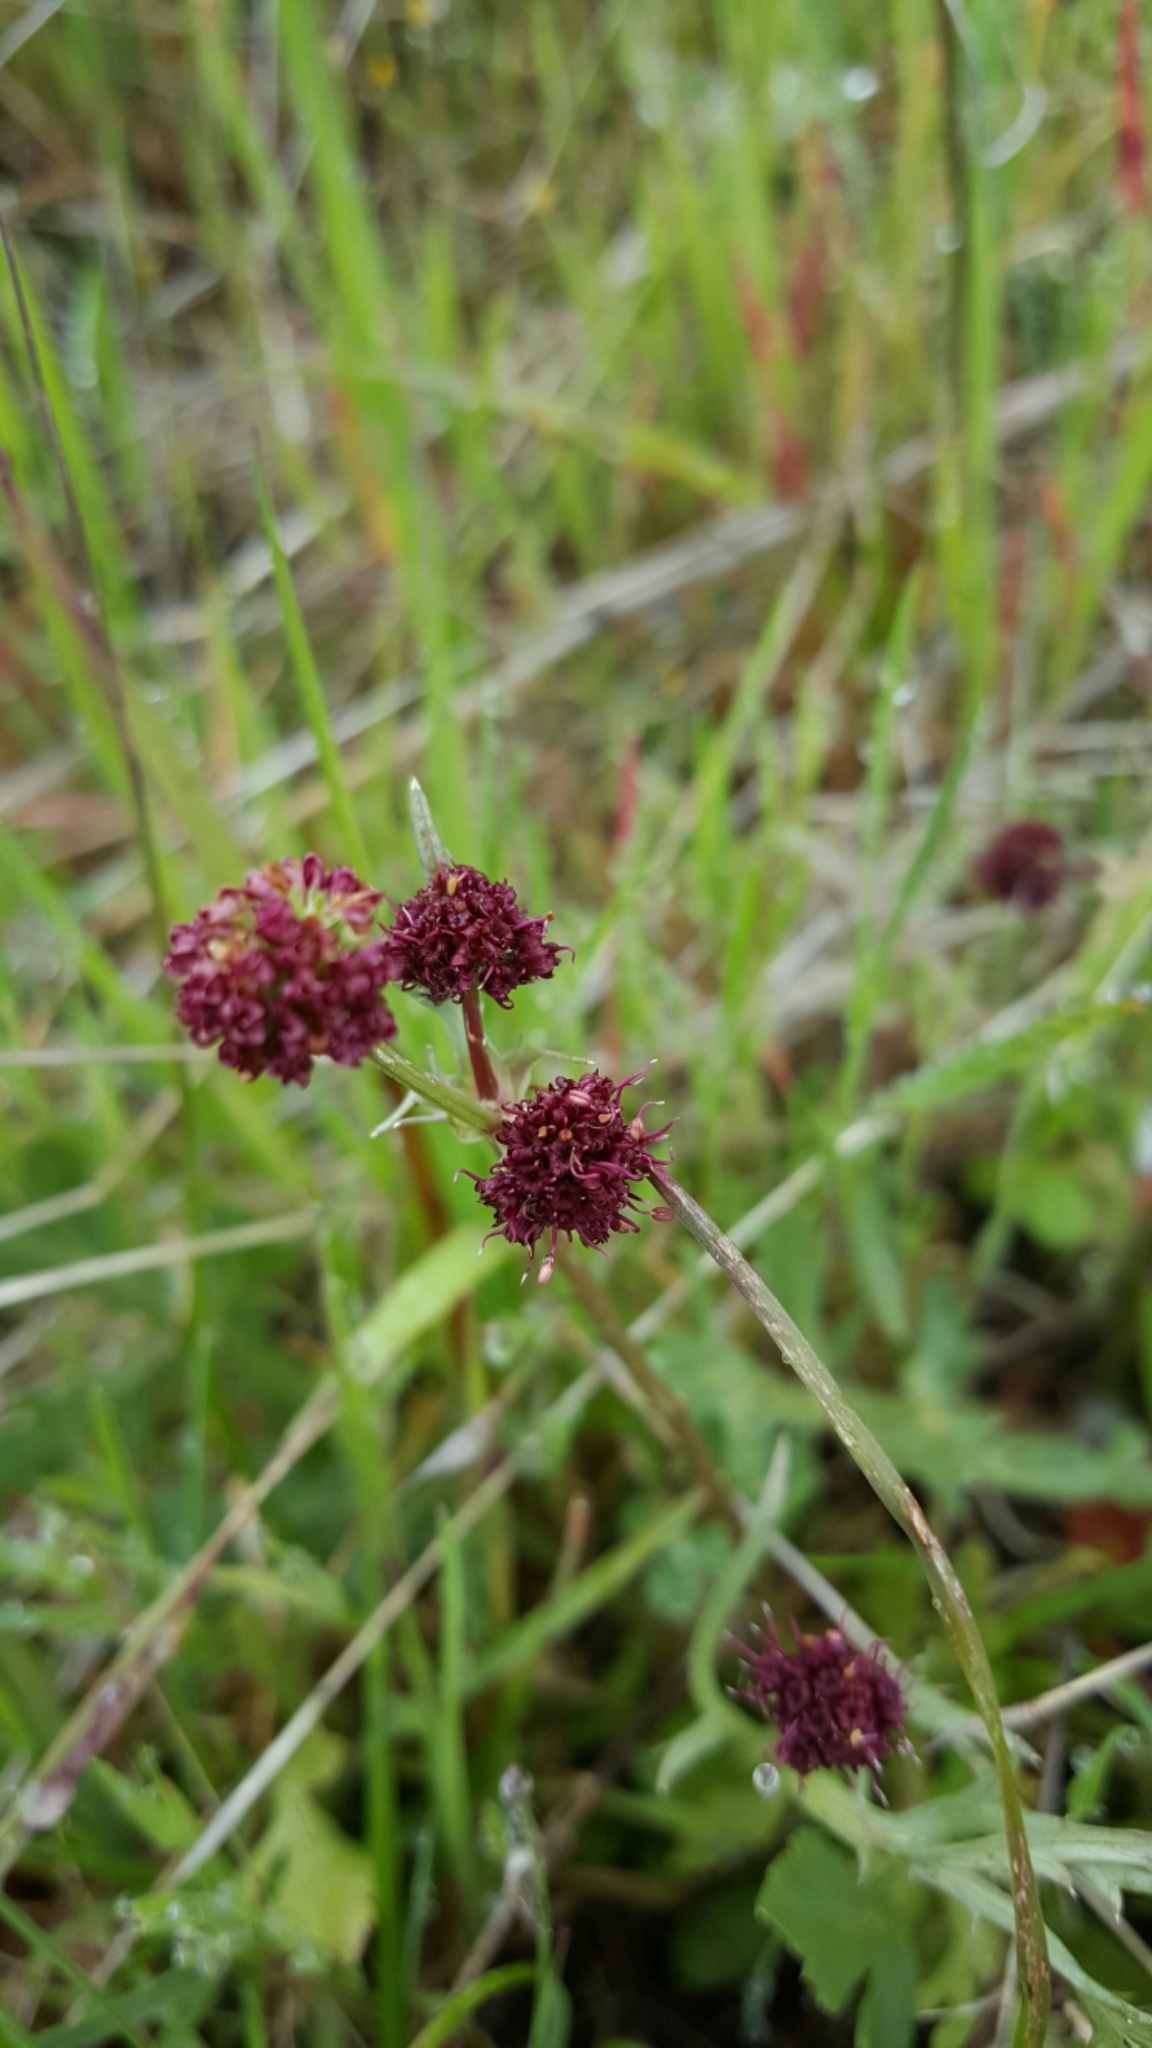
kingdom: Plantae
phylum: Tracheophyta
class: Magnoliopsida
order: Apiales
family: Apiaceae
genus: Sanicula
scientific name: Sanicula bipinnatifida
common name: Shoe-buttons
